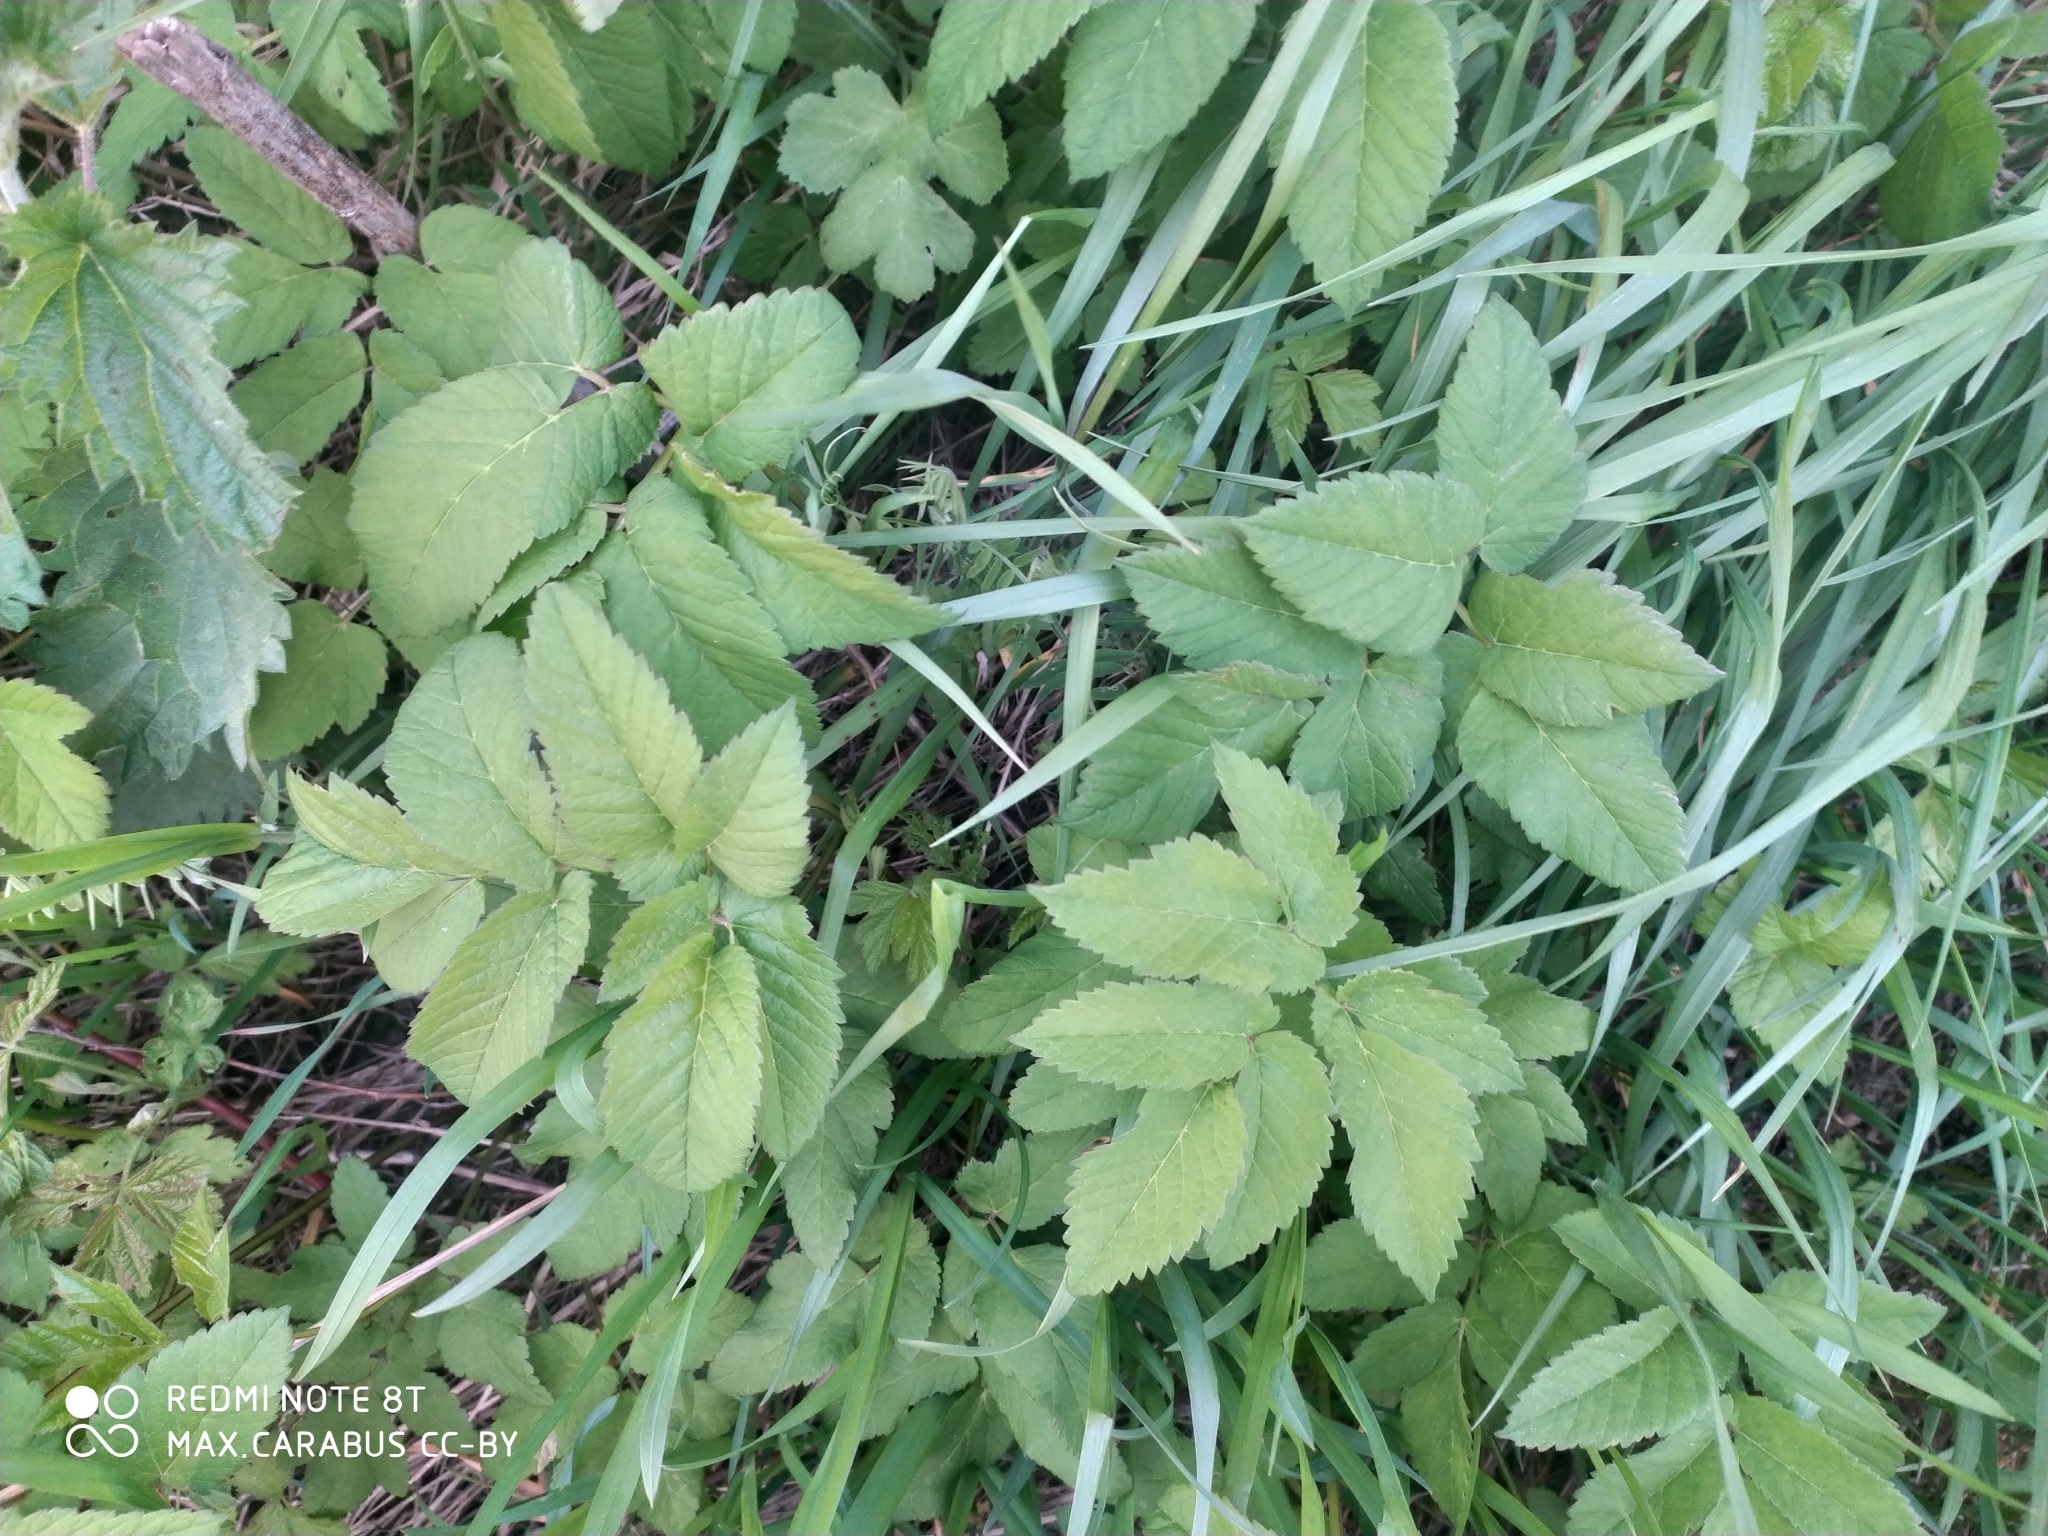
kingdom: Plantae
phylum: Tracheophyta
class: Magnoliopsida
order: Apiales
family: Apiaceae
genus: Aegopodium
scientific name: Aegopodium podagraria
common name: Ground-elder
